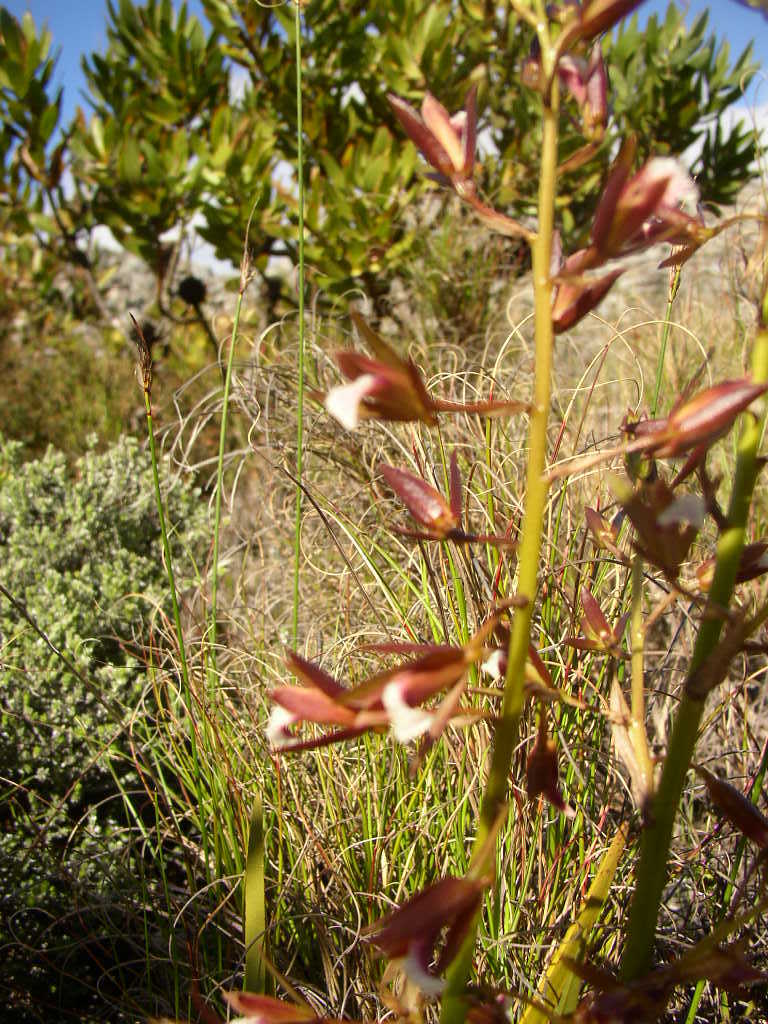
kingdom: Plantae
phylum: Tracheophyta
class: Liliopsida
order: Asparagales
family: Orchidaceae
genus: Eulophia
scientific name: Eulophia tristis
